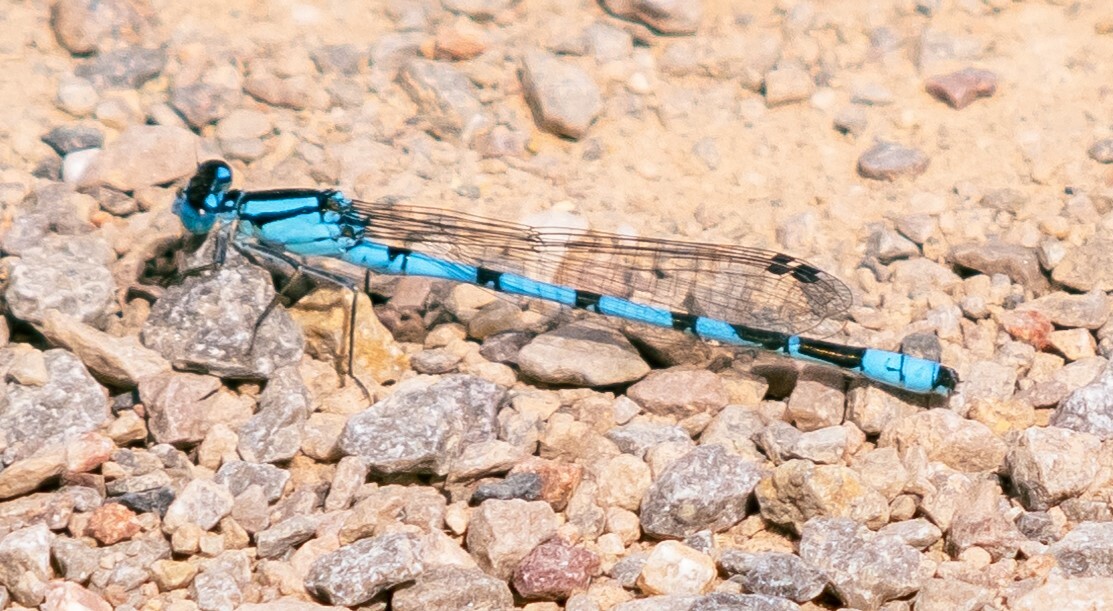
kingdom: Animalia
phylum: Arthropoda
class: Insecta
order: Odonata
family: Coenagrionidae
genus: Enallagma
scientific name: Enallagma cyathigerum
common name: Common blue damselfly
